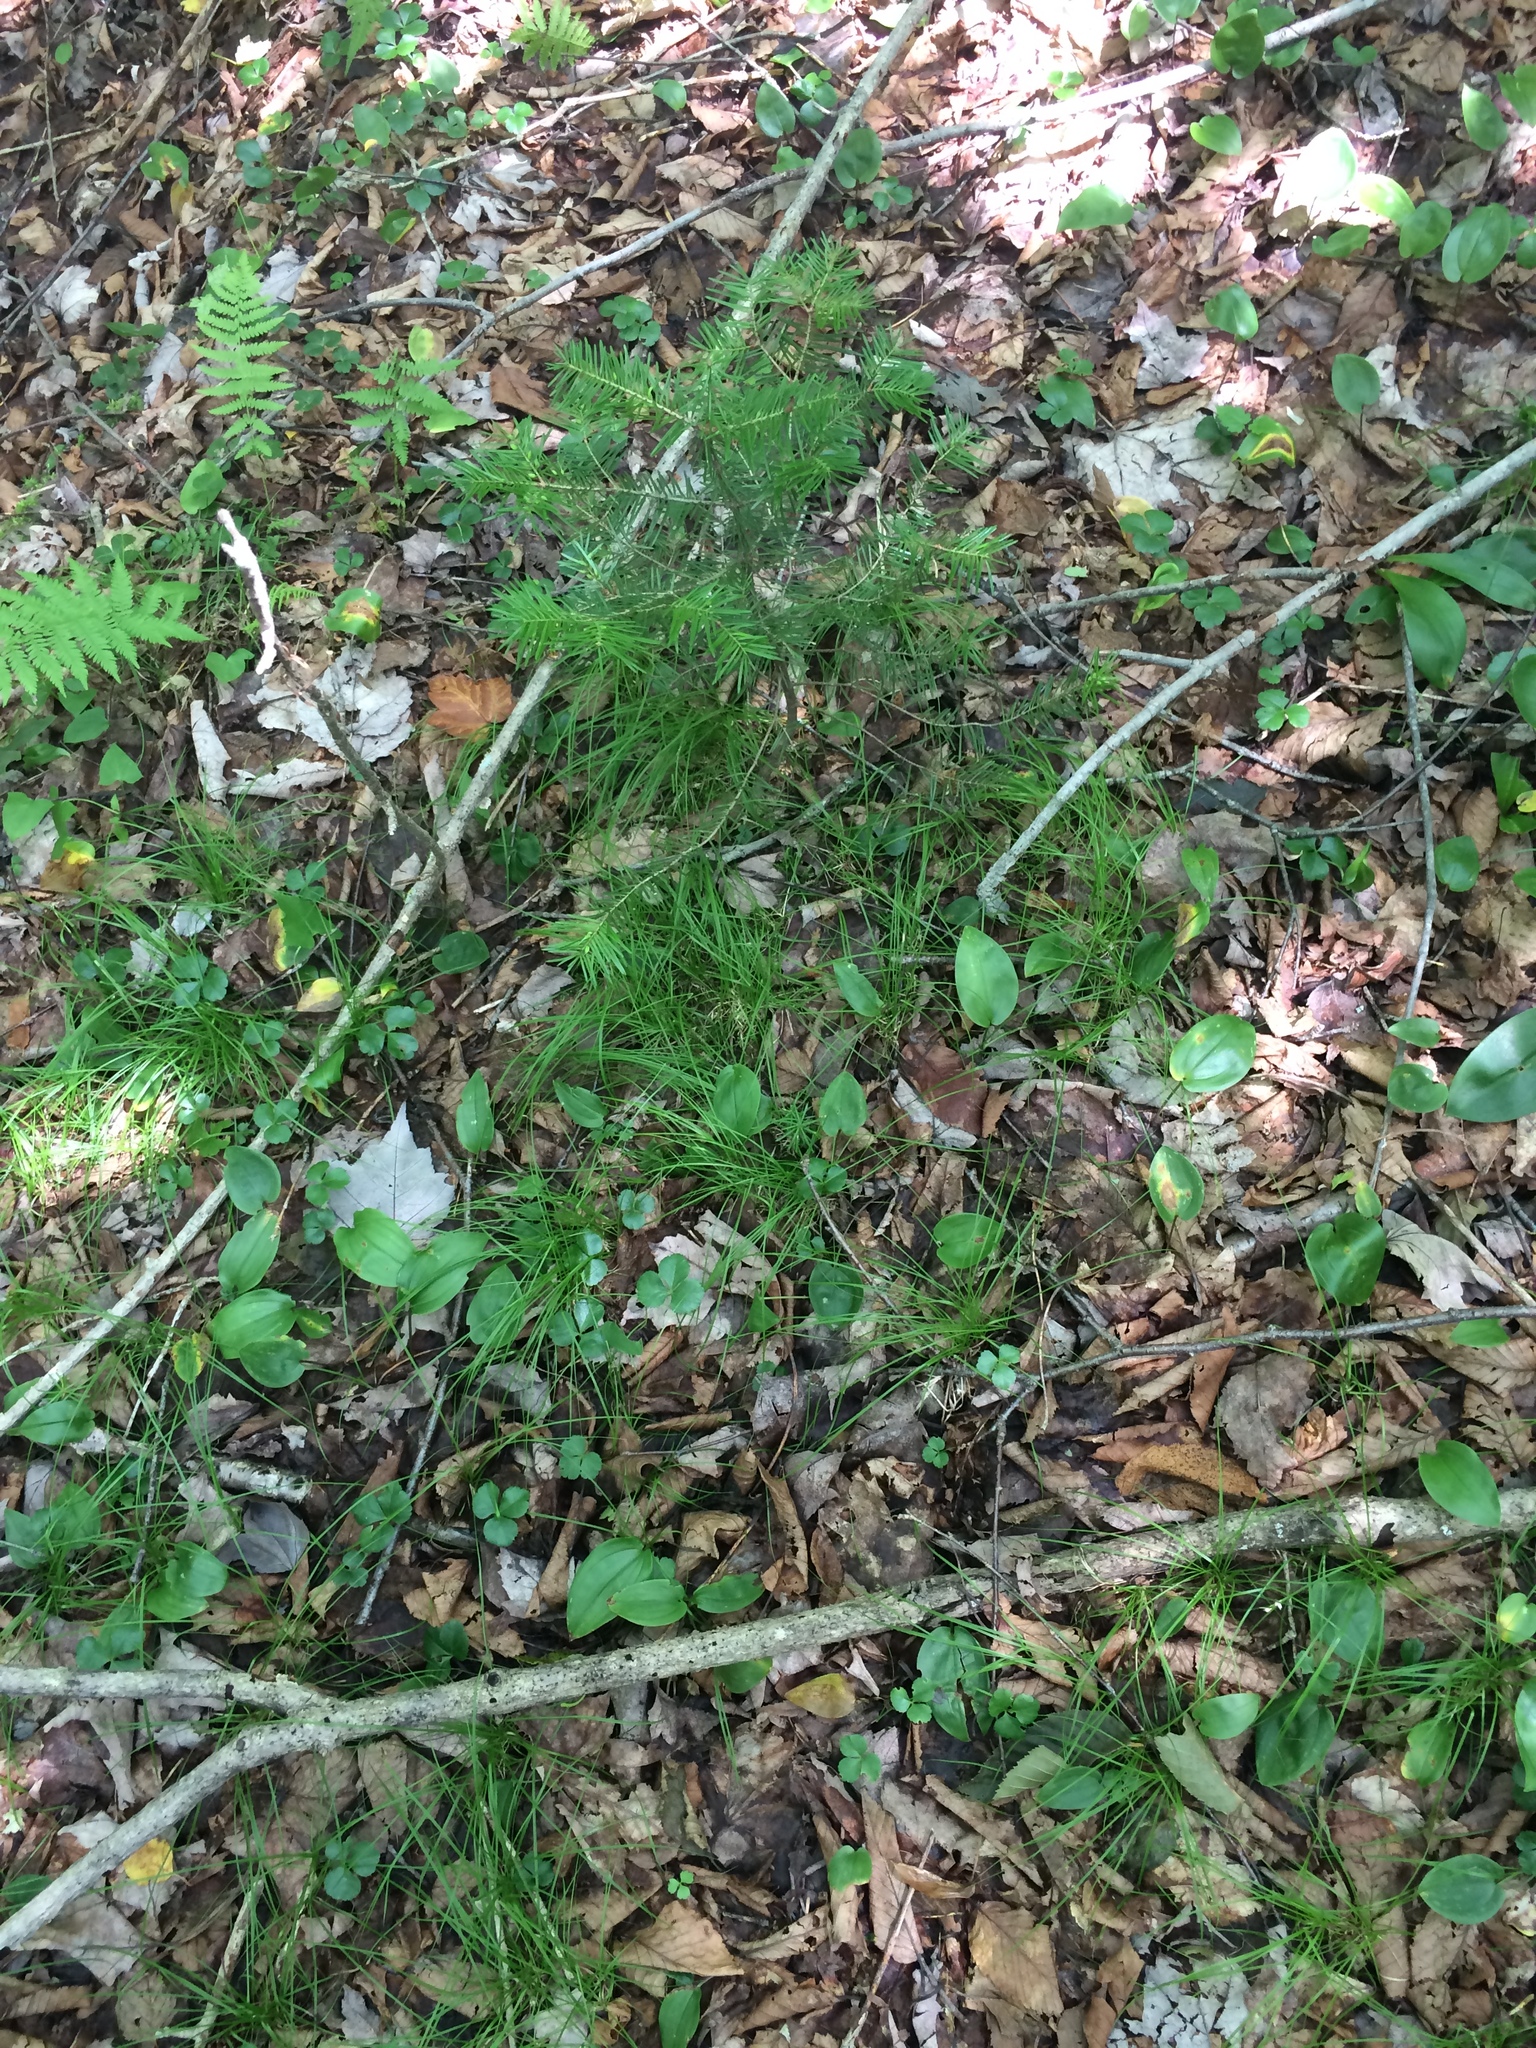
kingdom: Plantae
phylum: Tracheophyta
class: Liliopsida
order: Liliales
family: Liliaceae
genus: Clintonia
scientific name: Clintonia borealis
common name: Yellow clintonia
